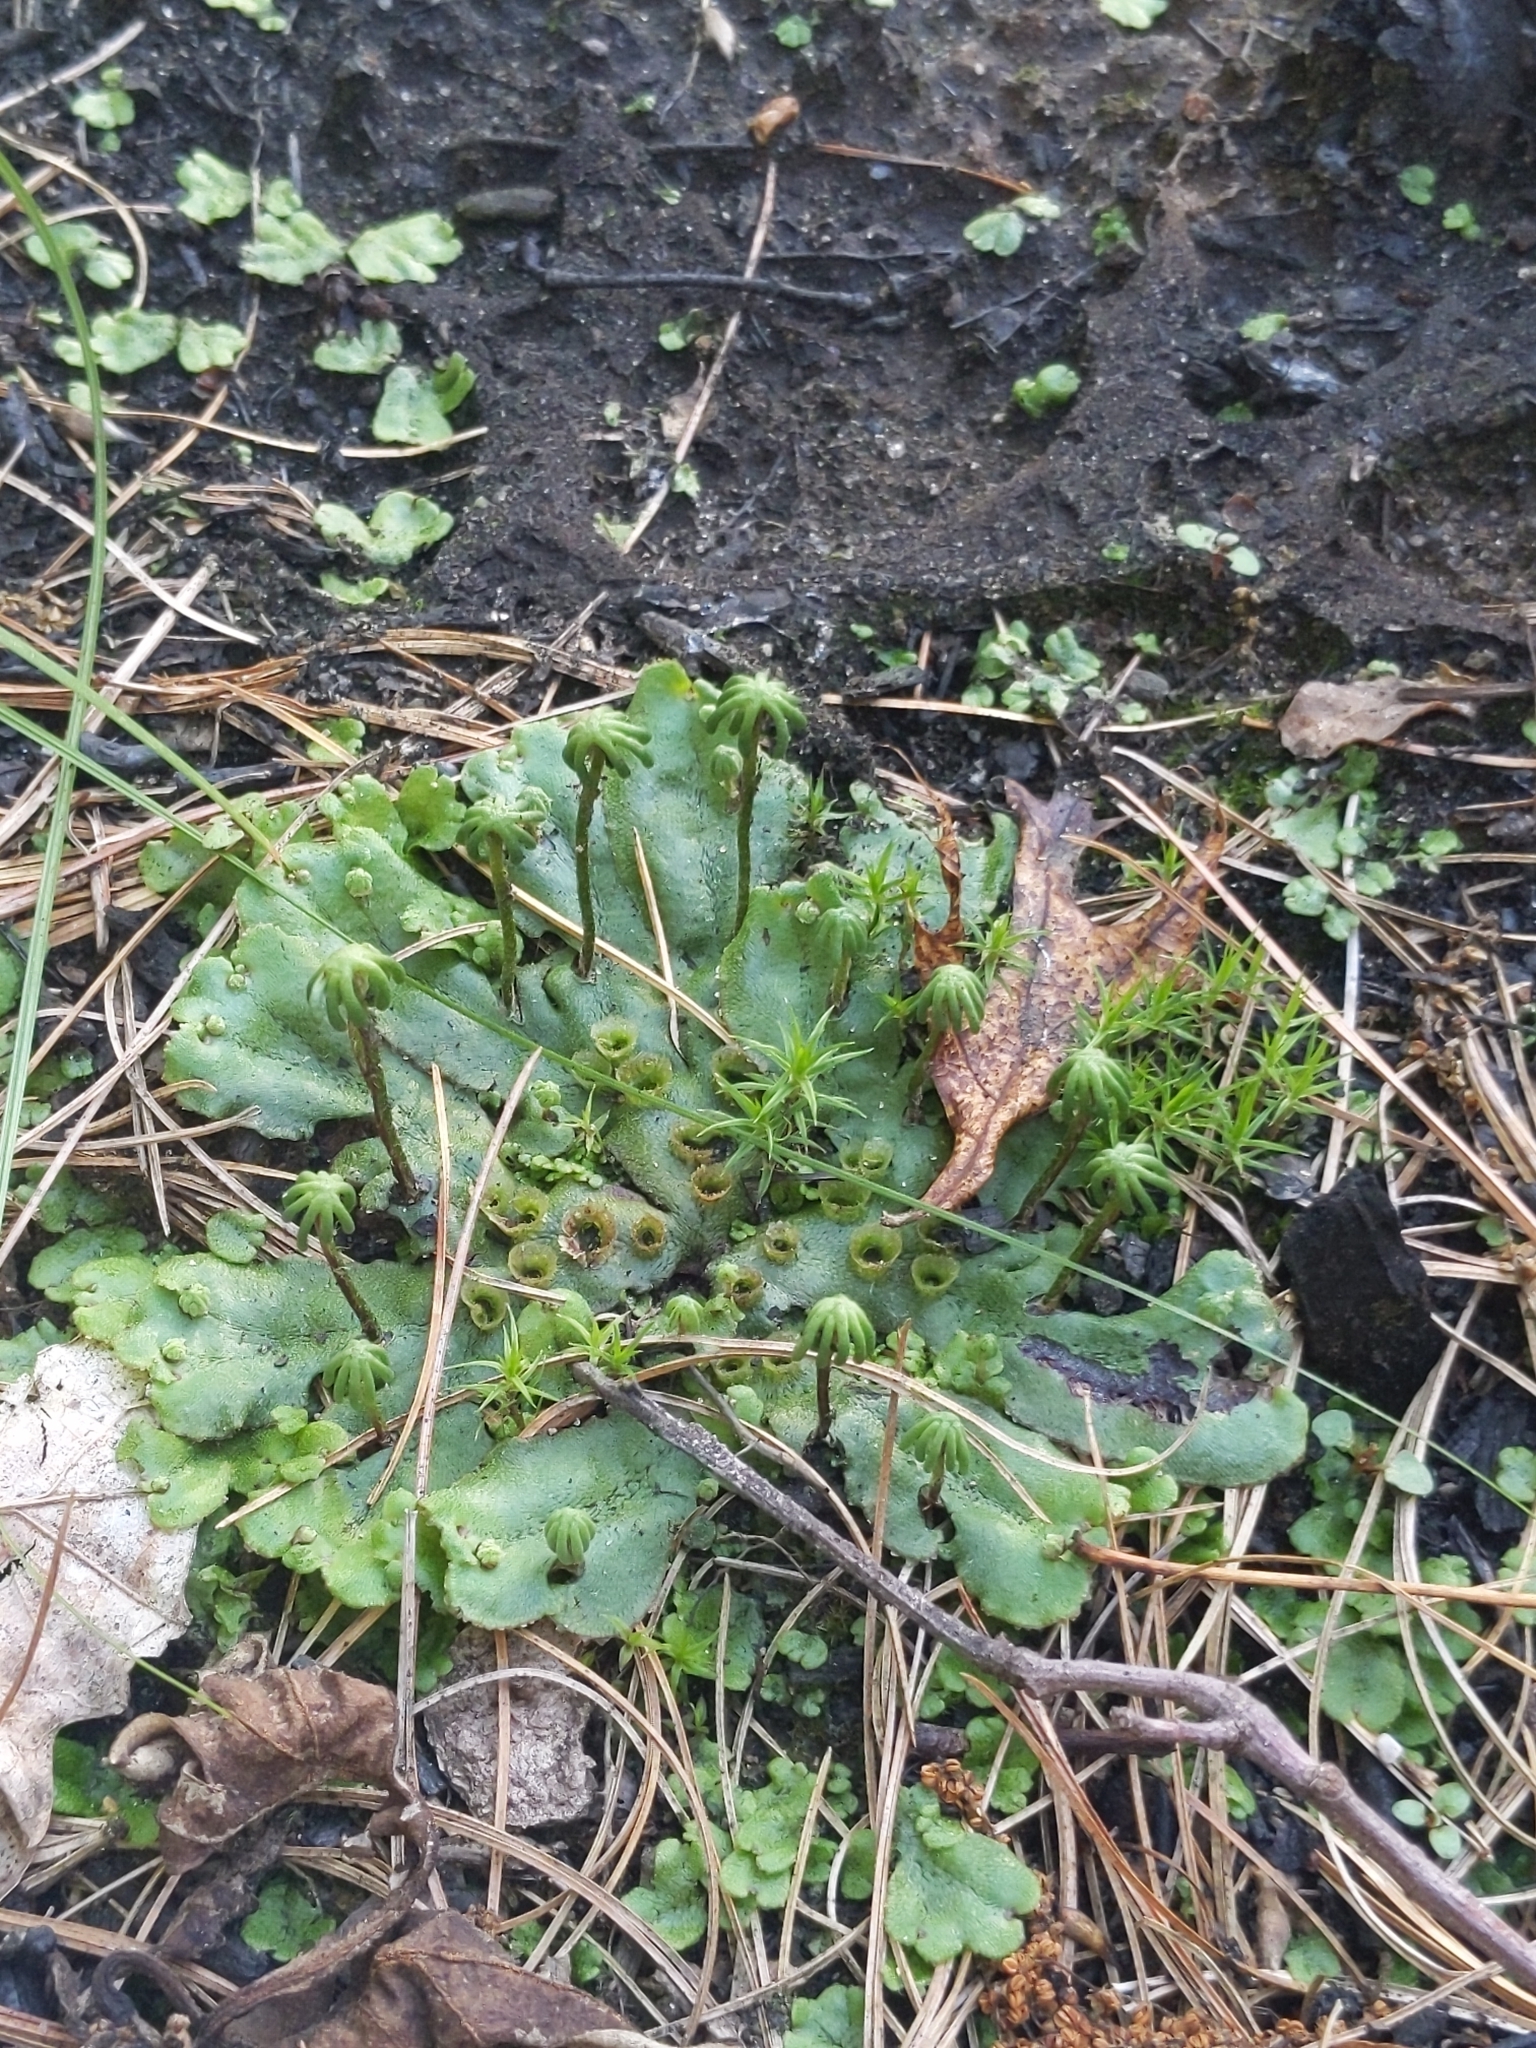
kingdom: Plantae
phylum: Marchantiophyta
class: Marchantiopsida
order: Marchantiales
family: Marchantiaceae
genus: Marchantia
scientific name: Marchantia polymorpha
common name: Common liverwort
